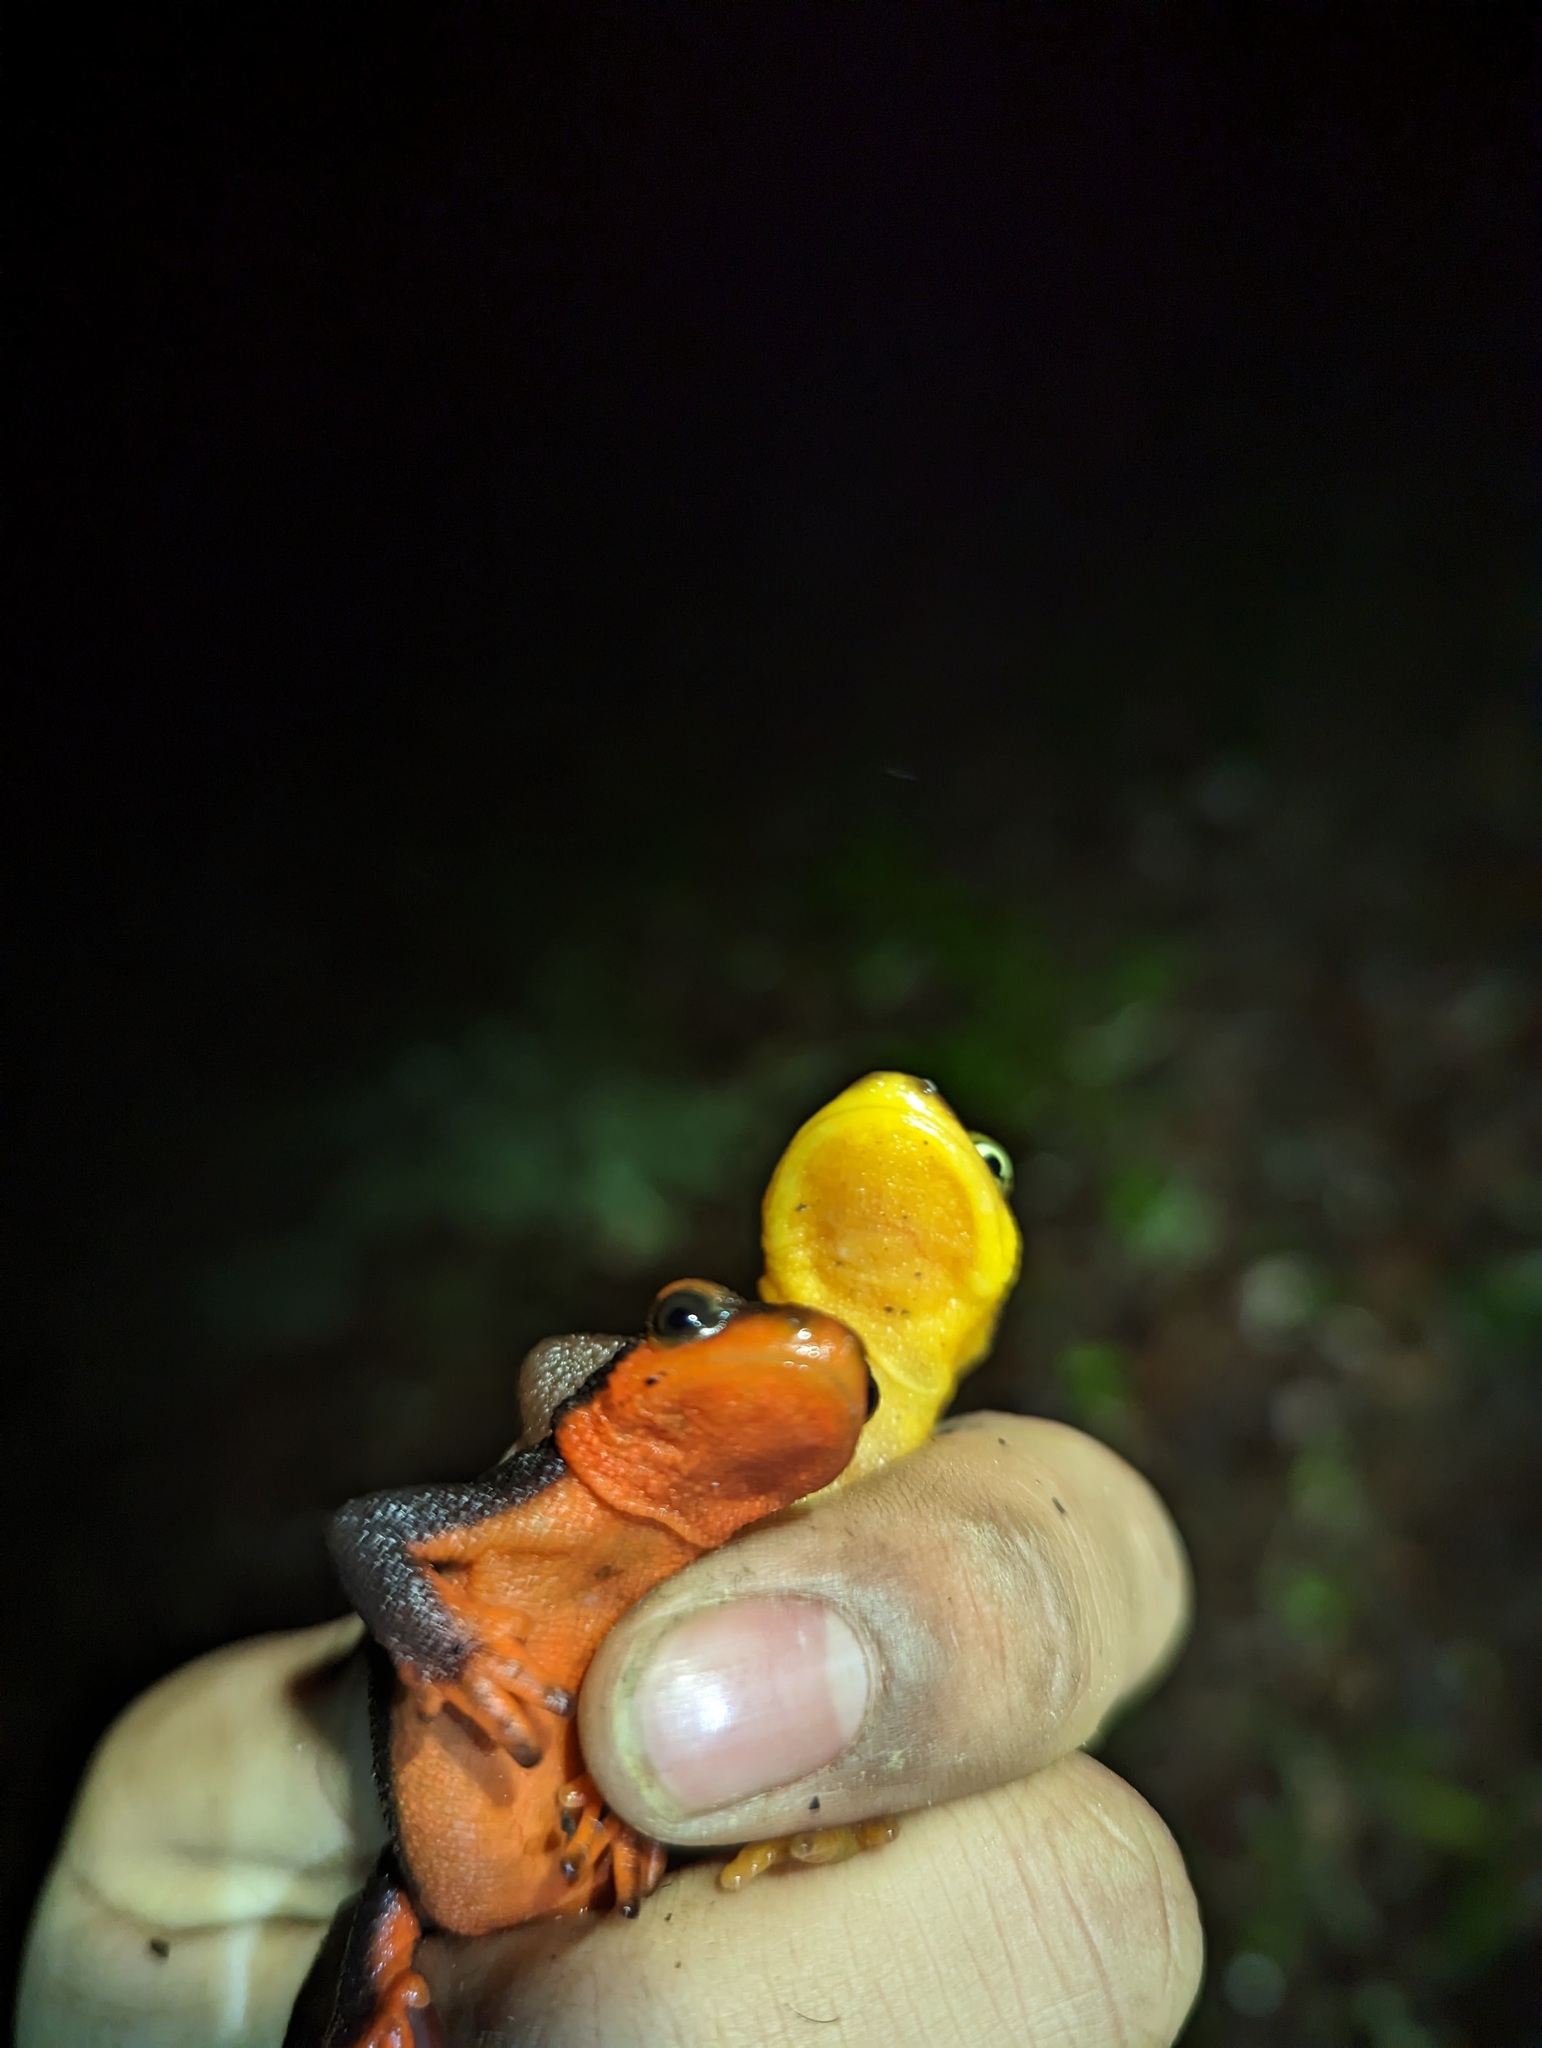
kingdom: Animalia
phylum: Chordata
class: Amphibia
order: Caudata
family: Salamandridae
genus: Taricha
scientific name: Taricha rivularis
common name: Red-bellied newt
